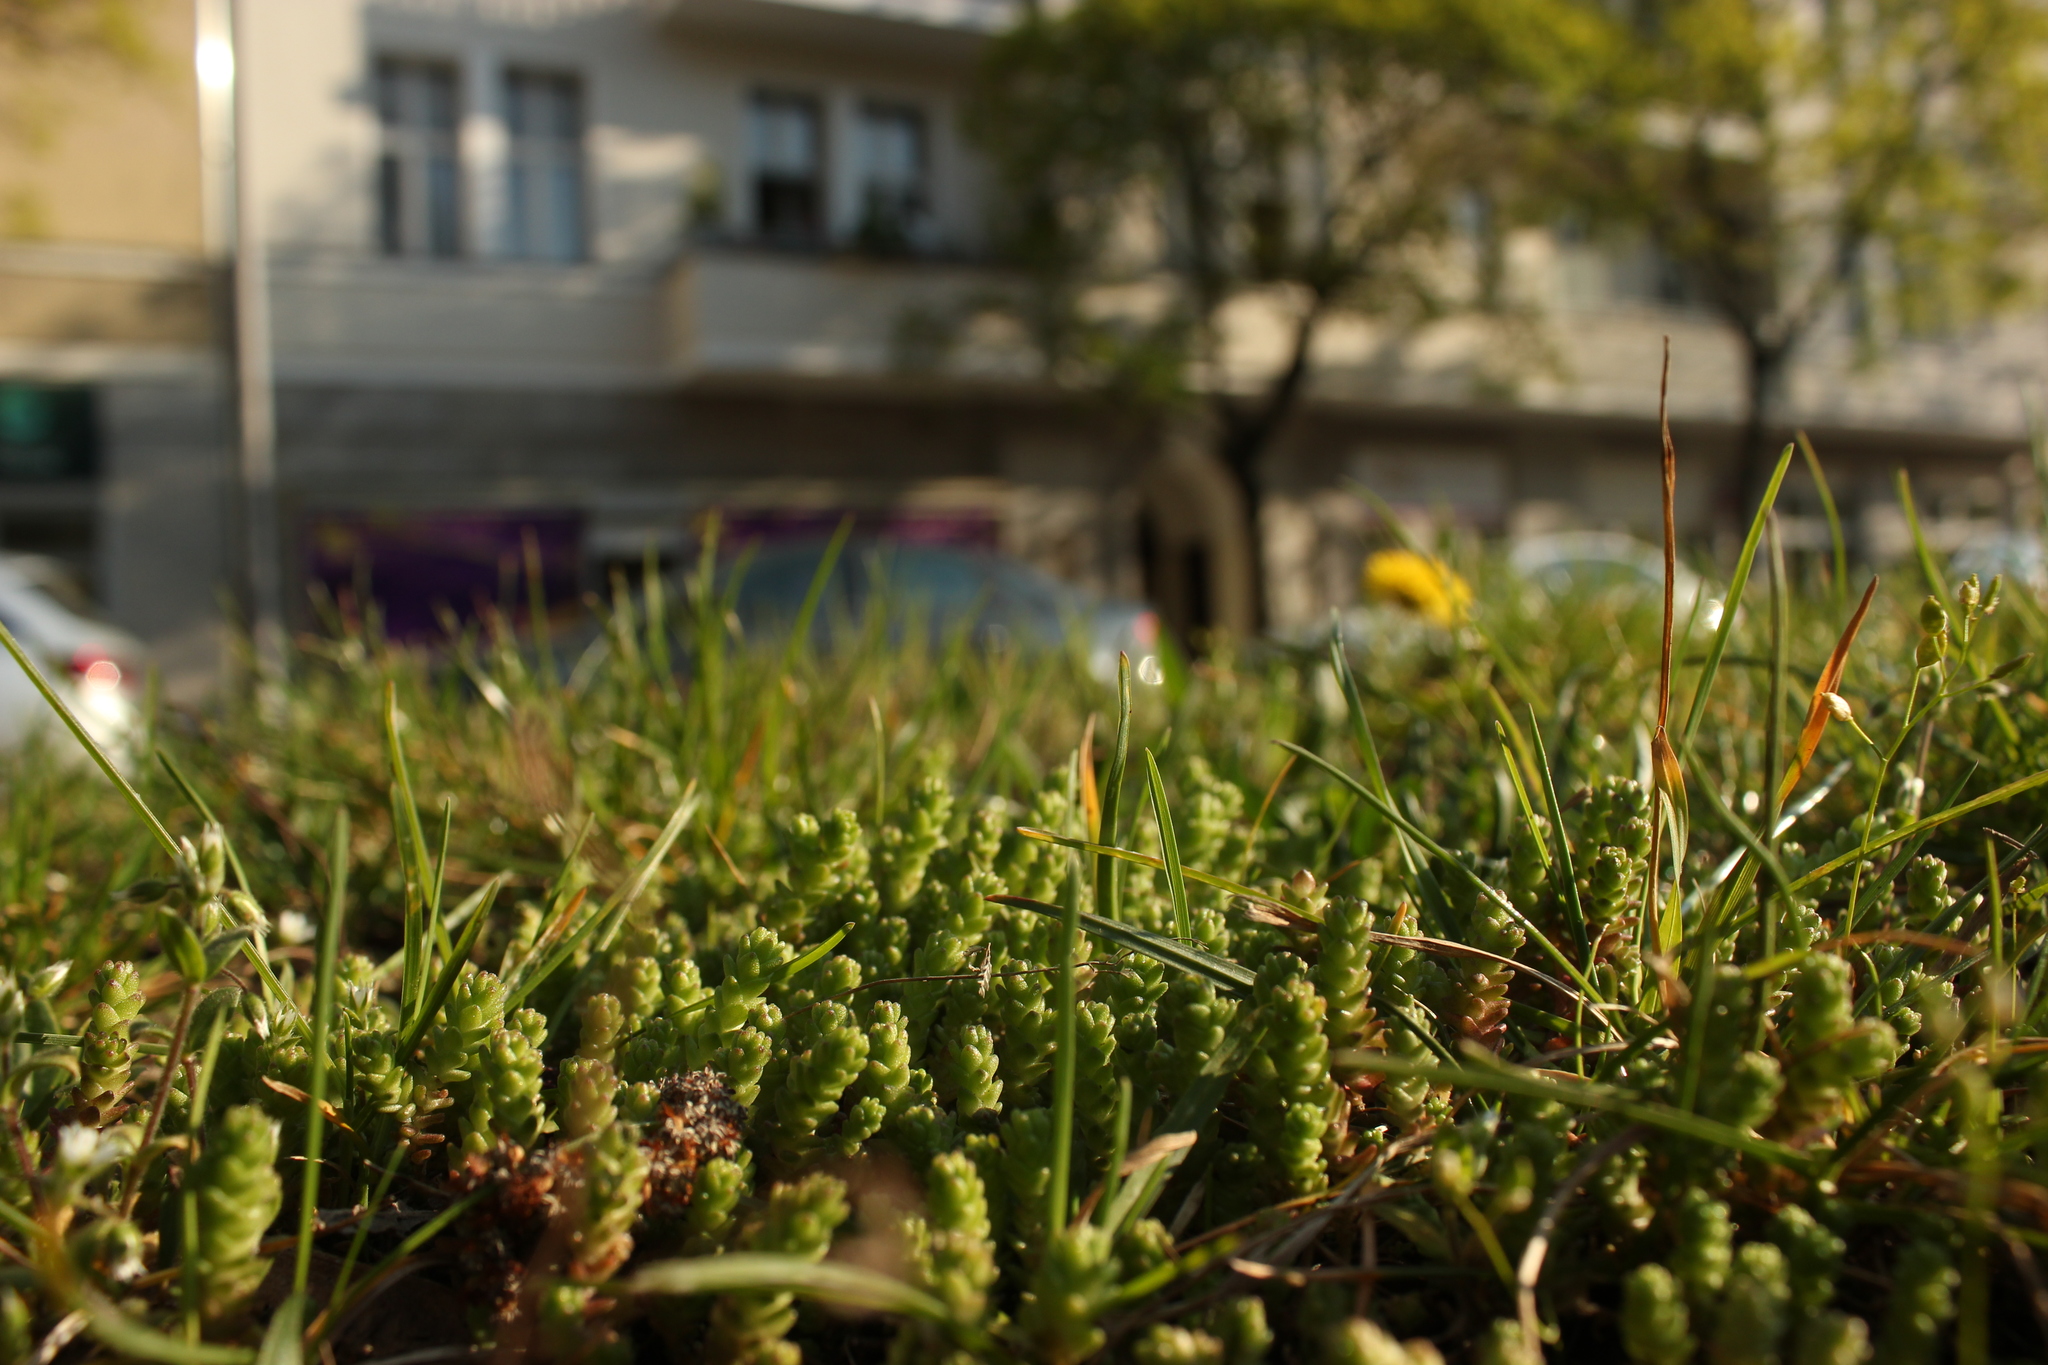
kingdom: Plantae
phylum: Tracheophyta
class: Magnoliopsida
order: Saxifragales
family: Crassulaceae
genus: Sedum
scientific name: Sedum acre
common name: Biting stonecrop
